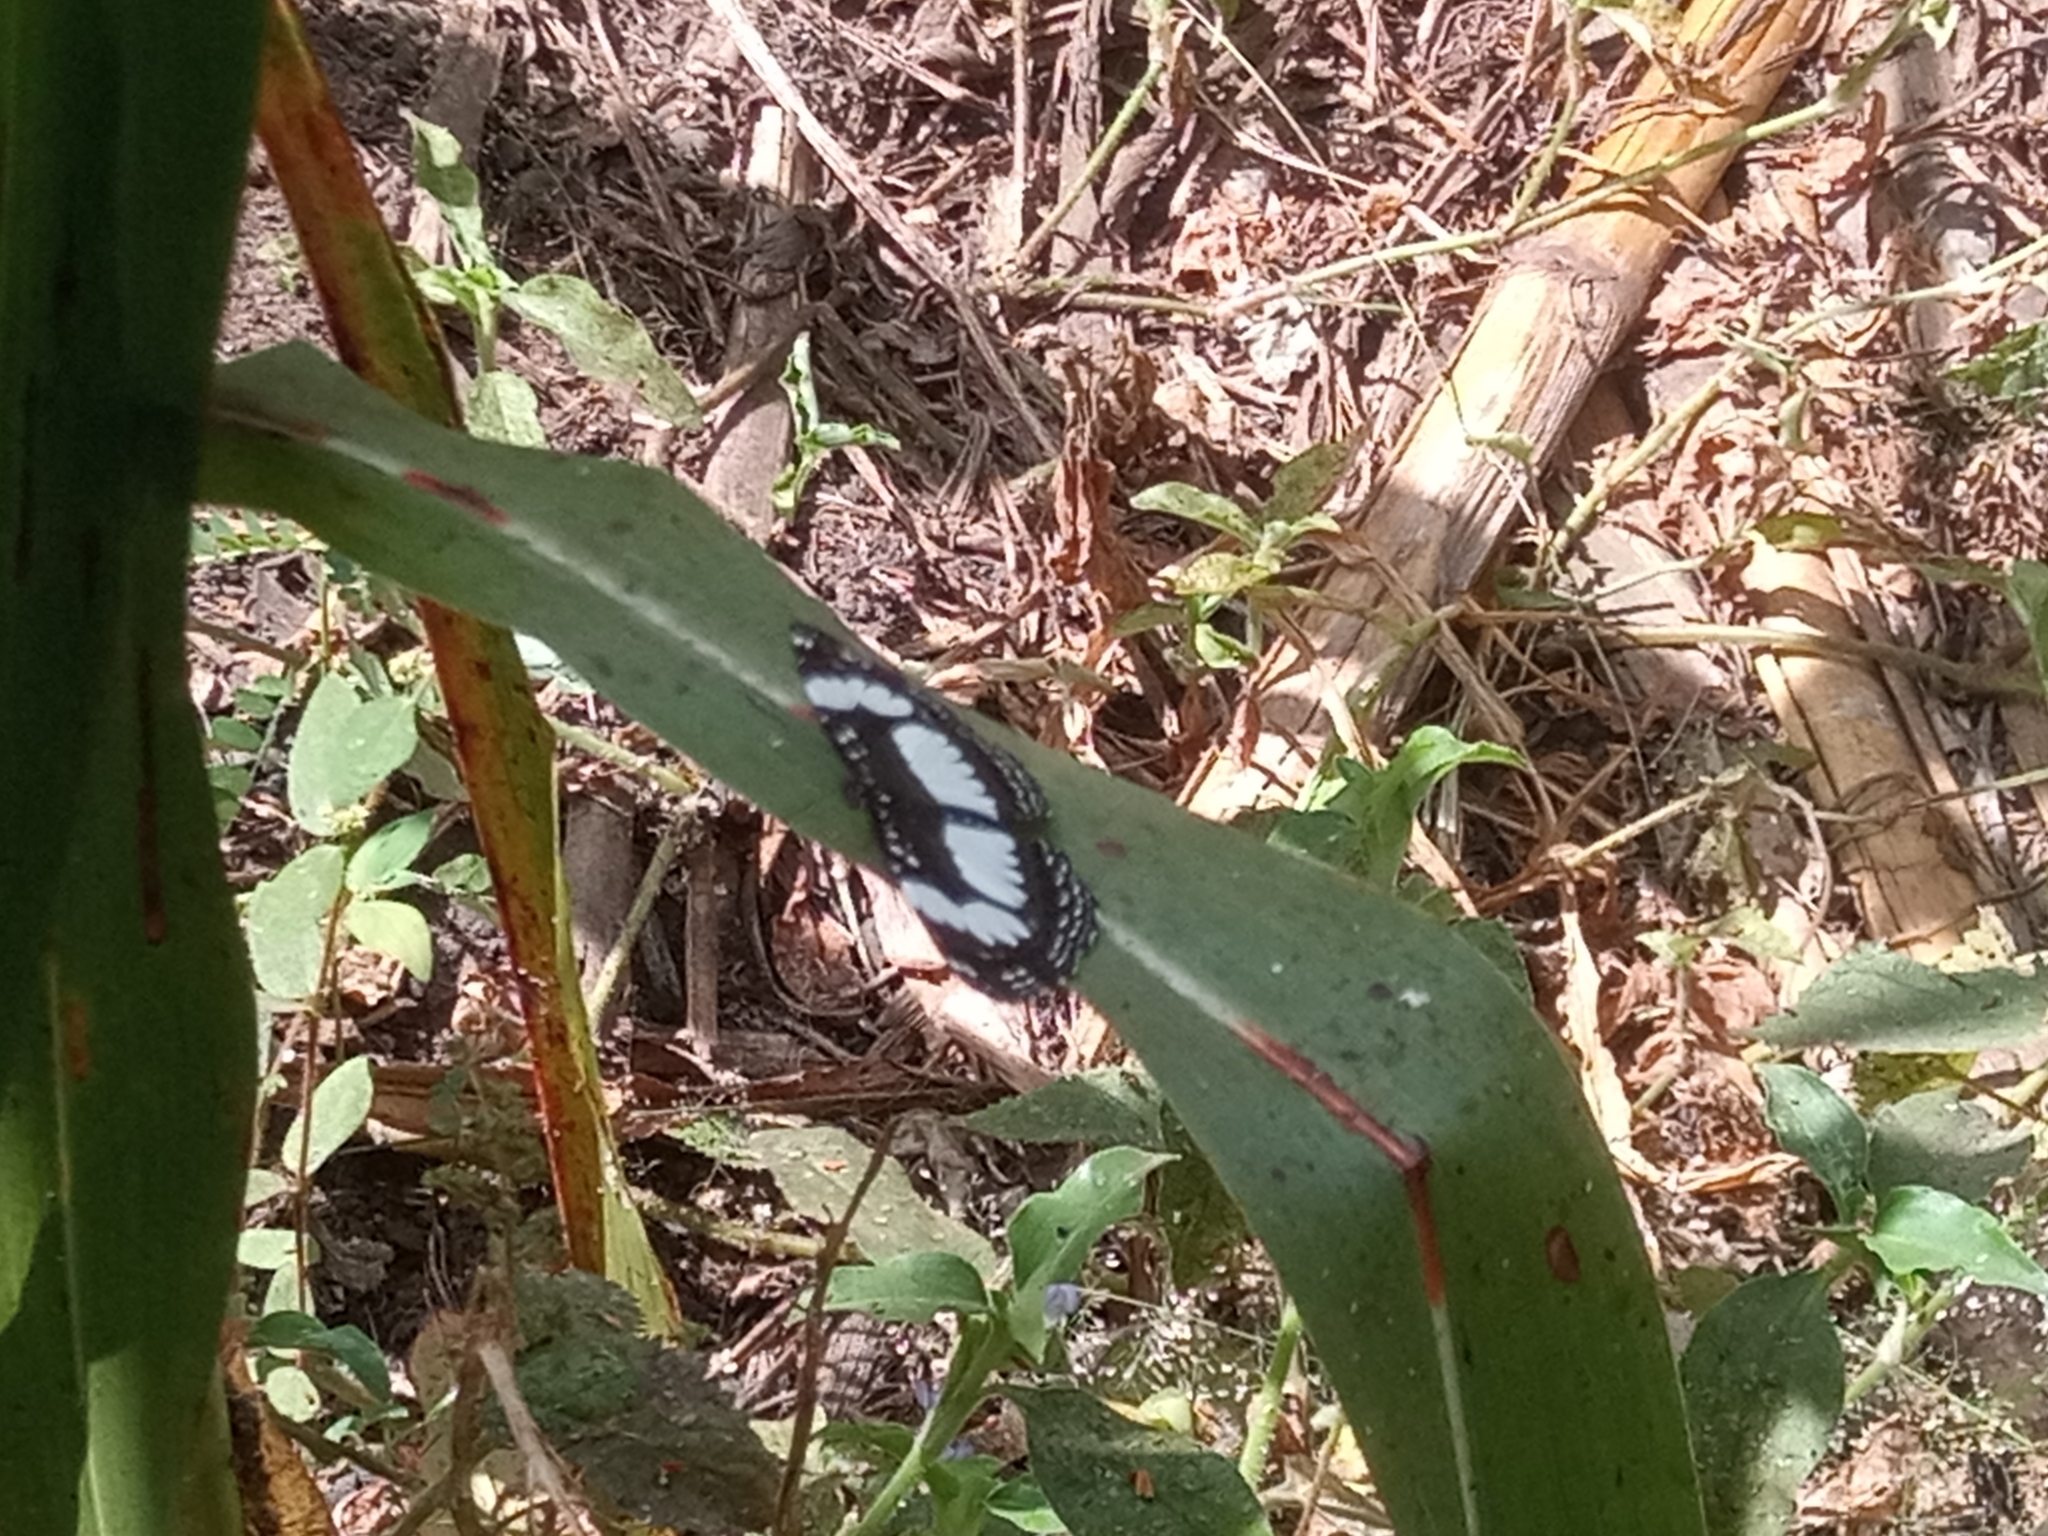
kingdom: Animalia
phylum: Arthropoda
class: Insecta
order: Lepidoptera
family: Nymphalidae
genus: Neptis
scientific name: Neptis serena
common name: River sailer
